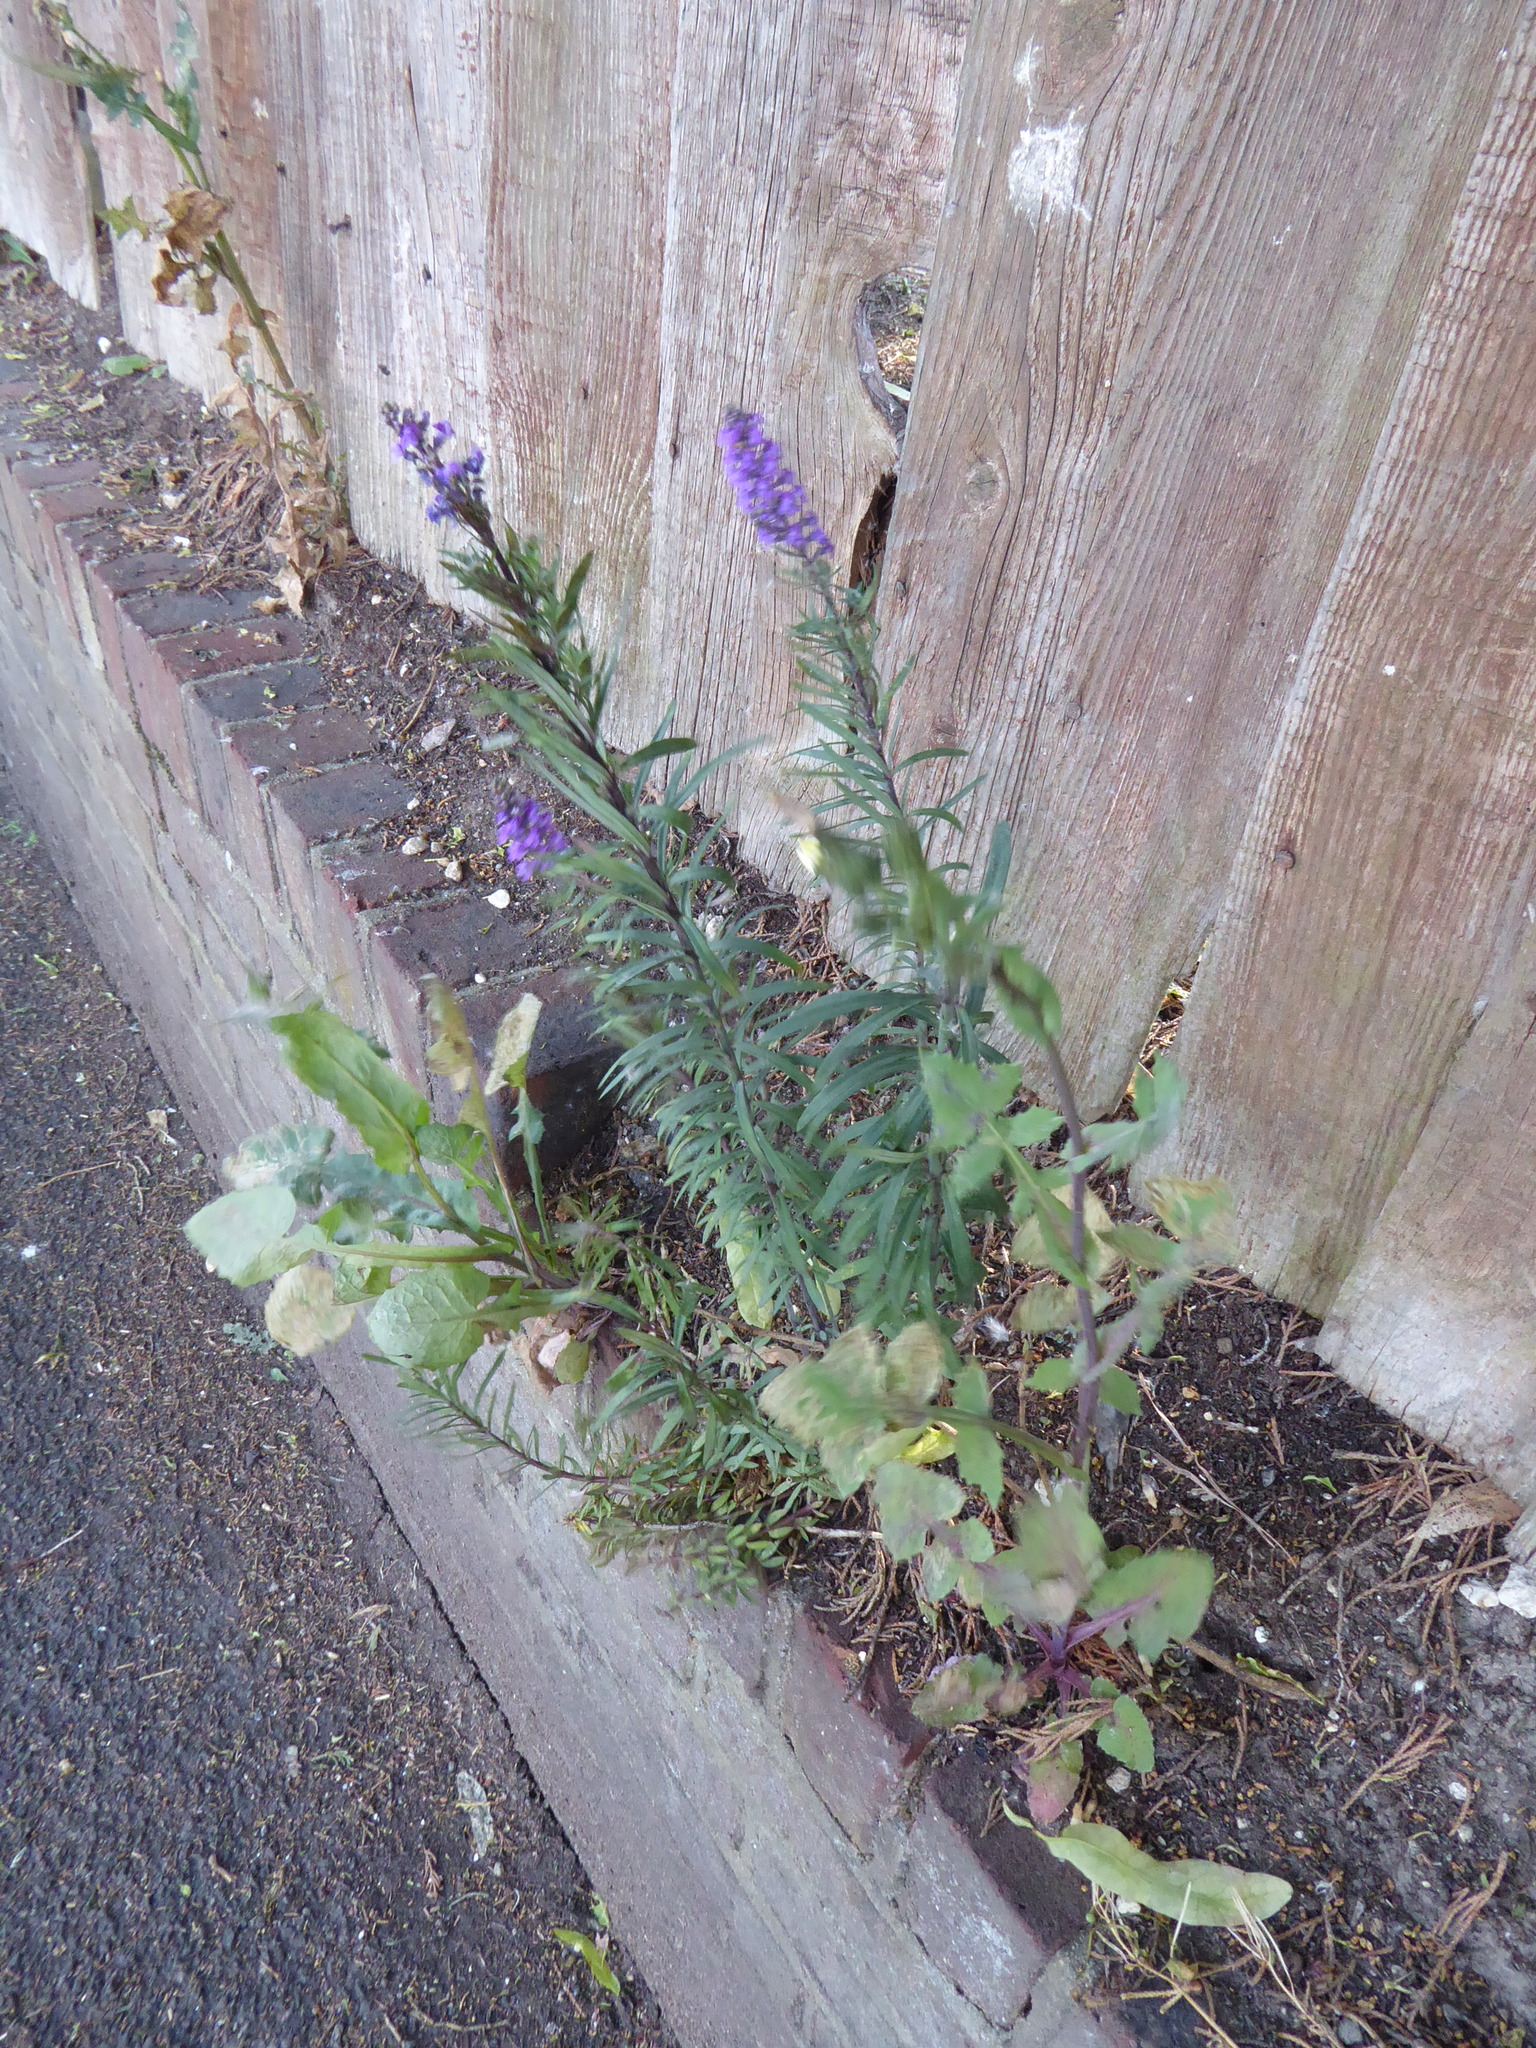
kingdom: Plantae
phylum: Tracheophyta
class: Magnoliopsida
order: Lamiales
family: Plantaginaceae
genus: Linaria
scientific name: Linaria purpurea
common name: Purple toadflax
